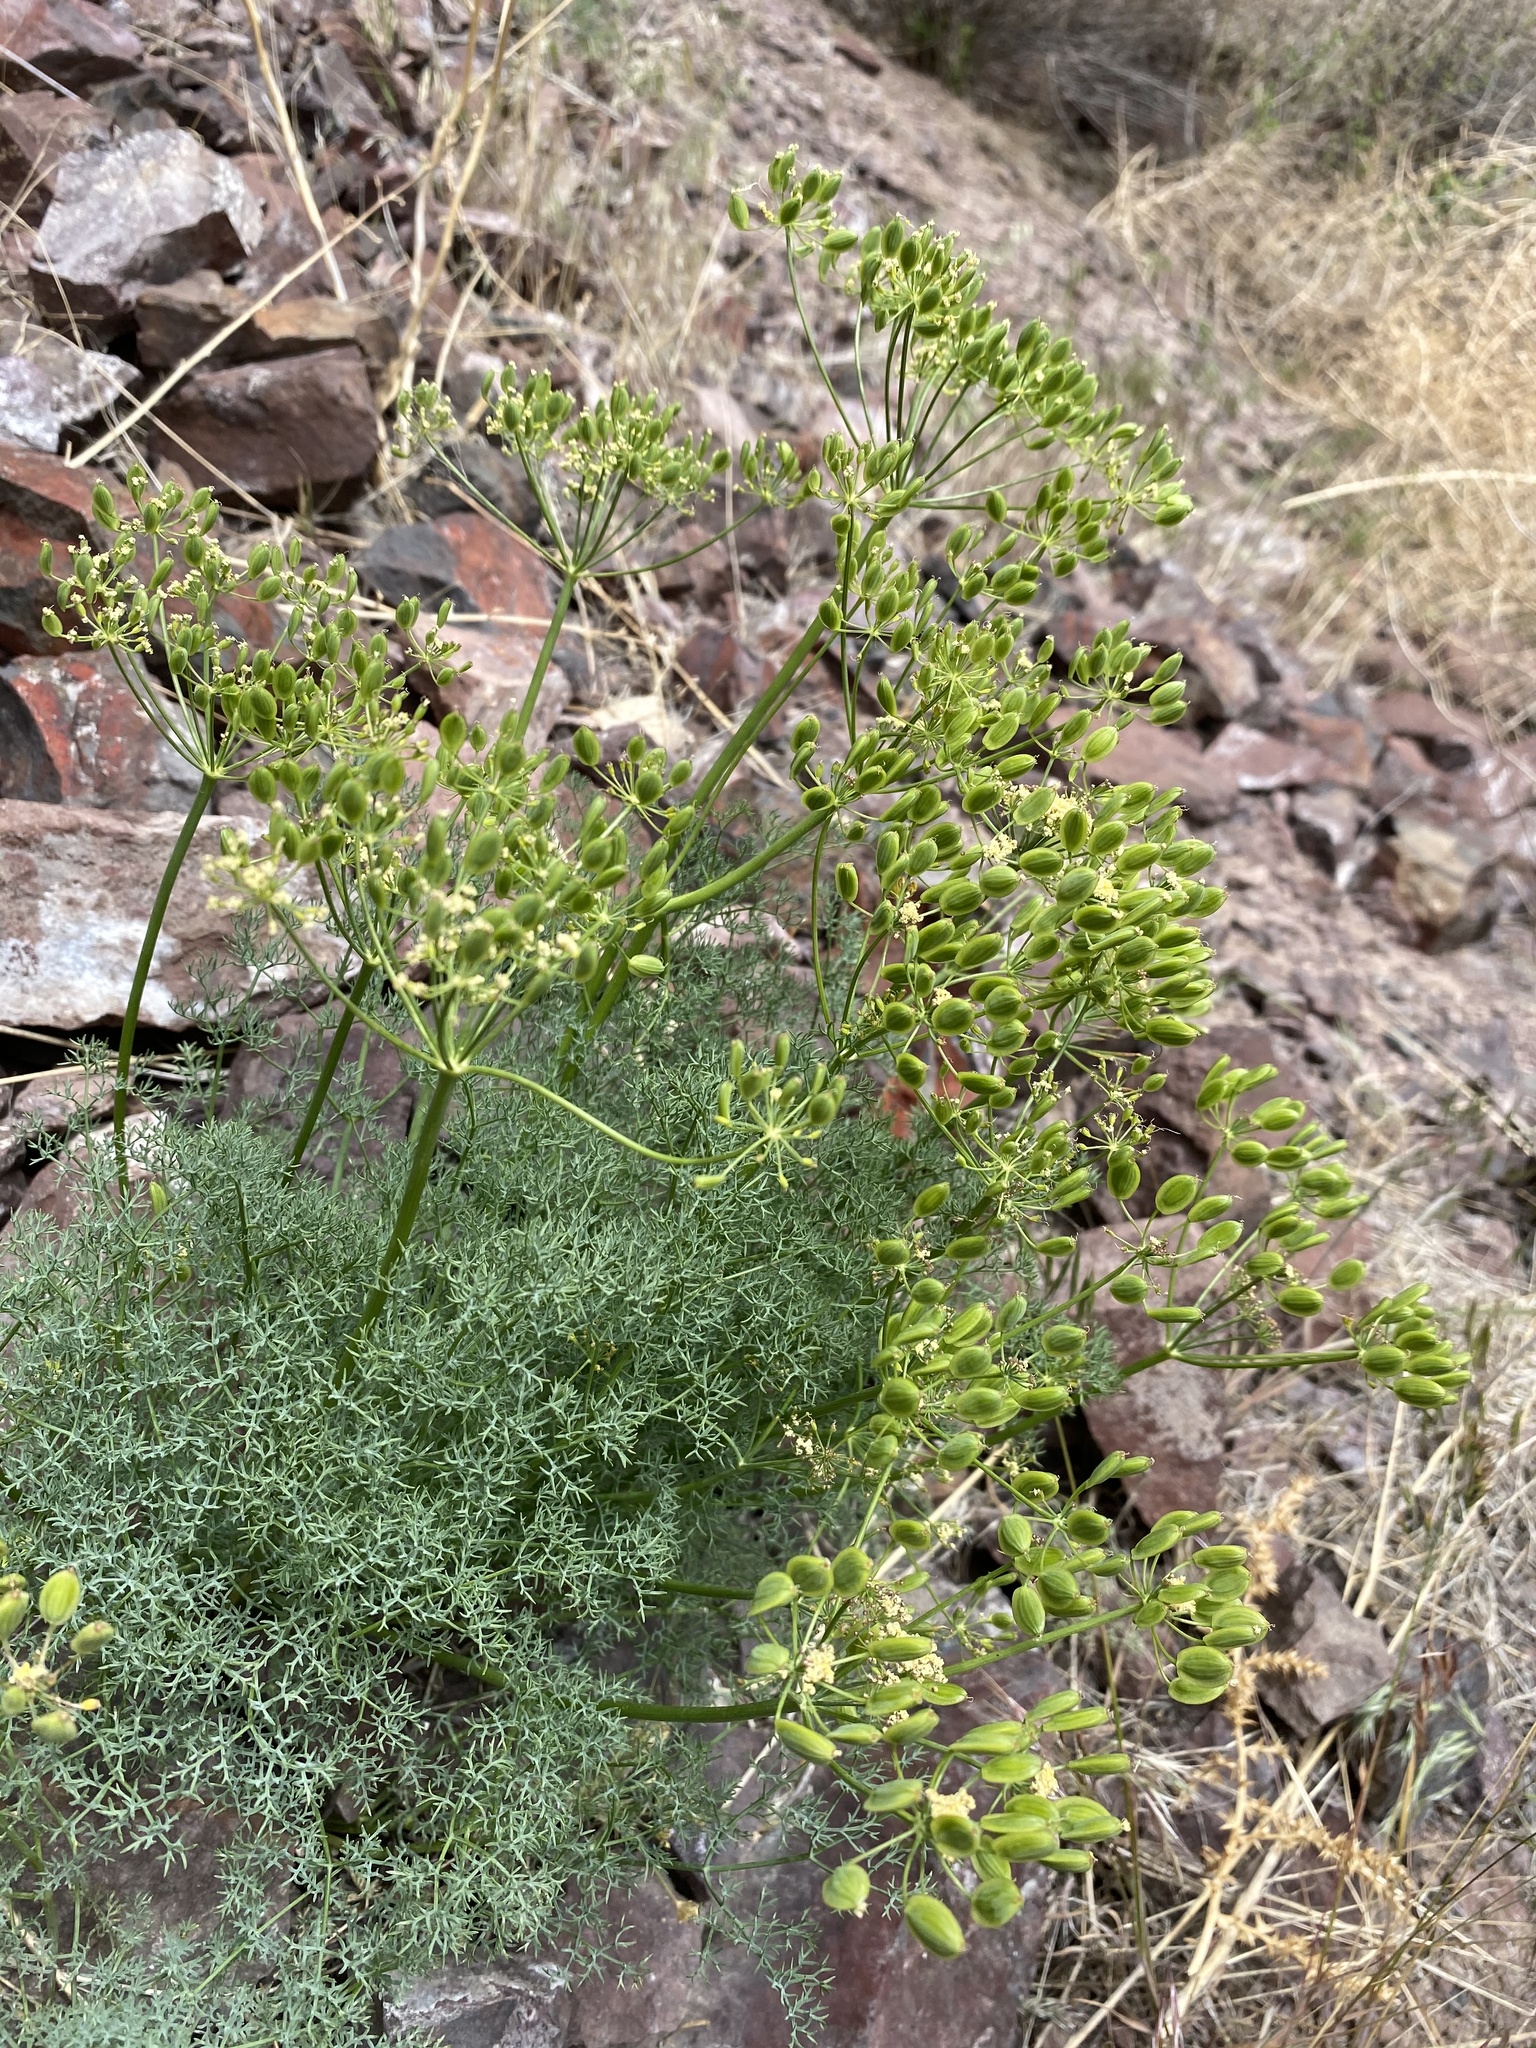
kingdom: Plantae
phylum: Tracheophyta
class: Magnoliopsida
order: Apiales
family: Apiaceae
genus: Lomatium
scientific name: Lomatium papilioniferum
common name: Butterfly lomatium
